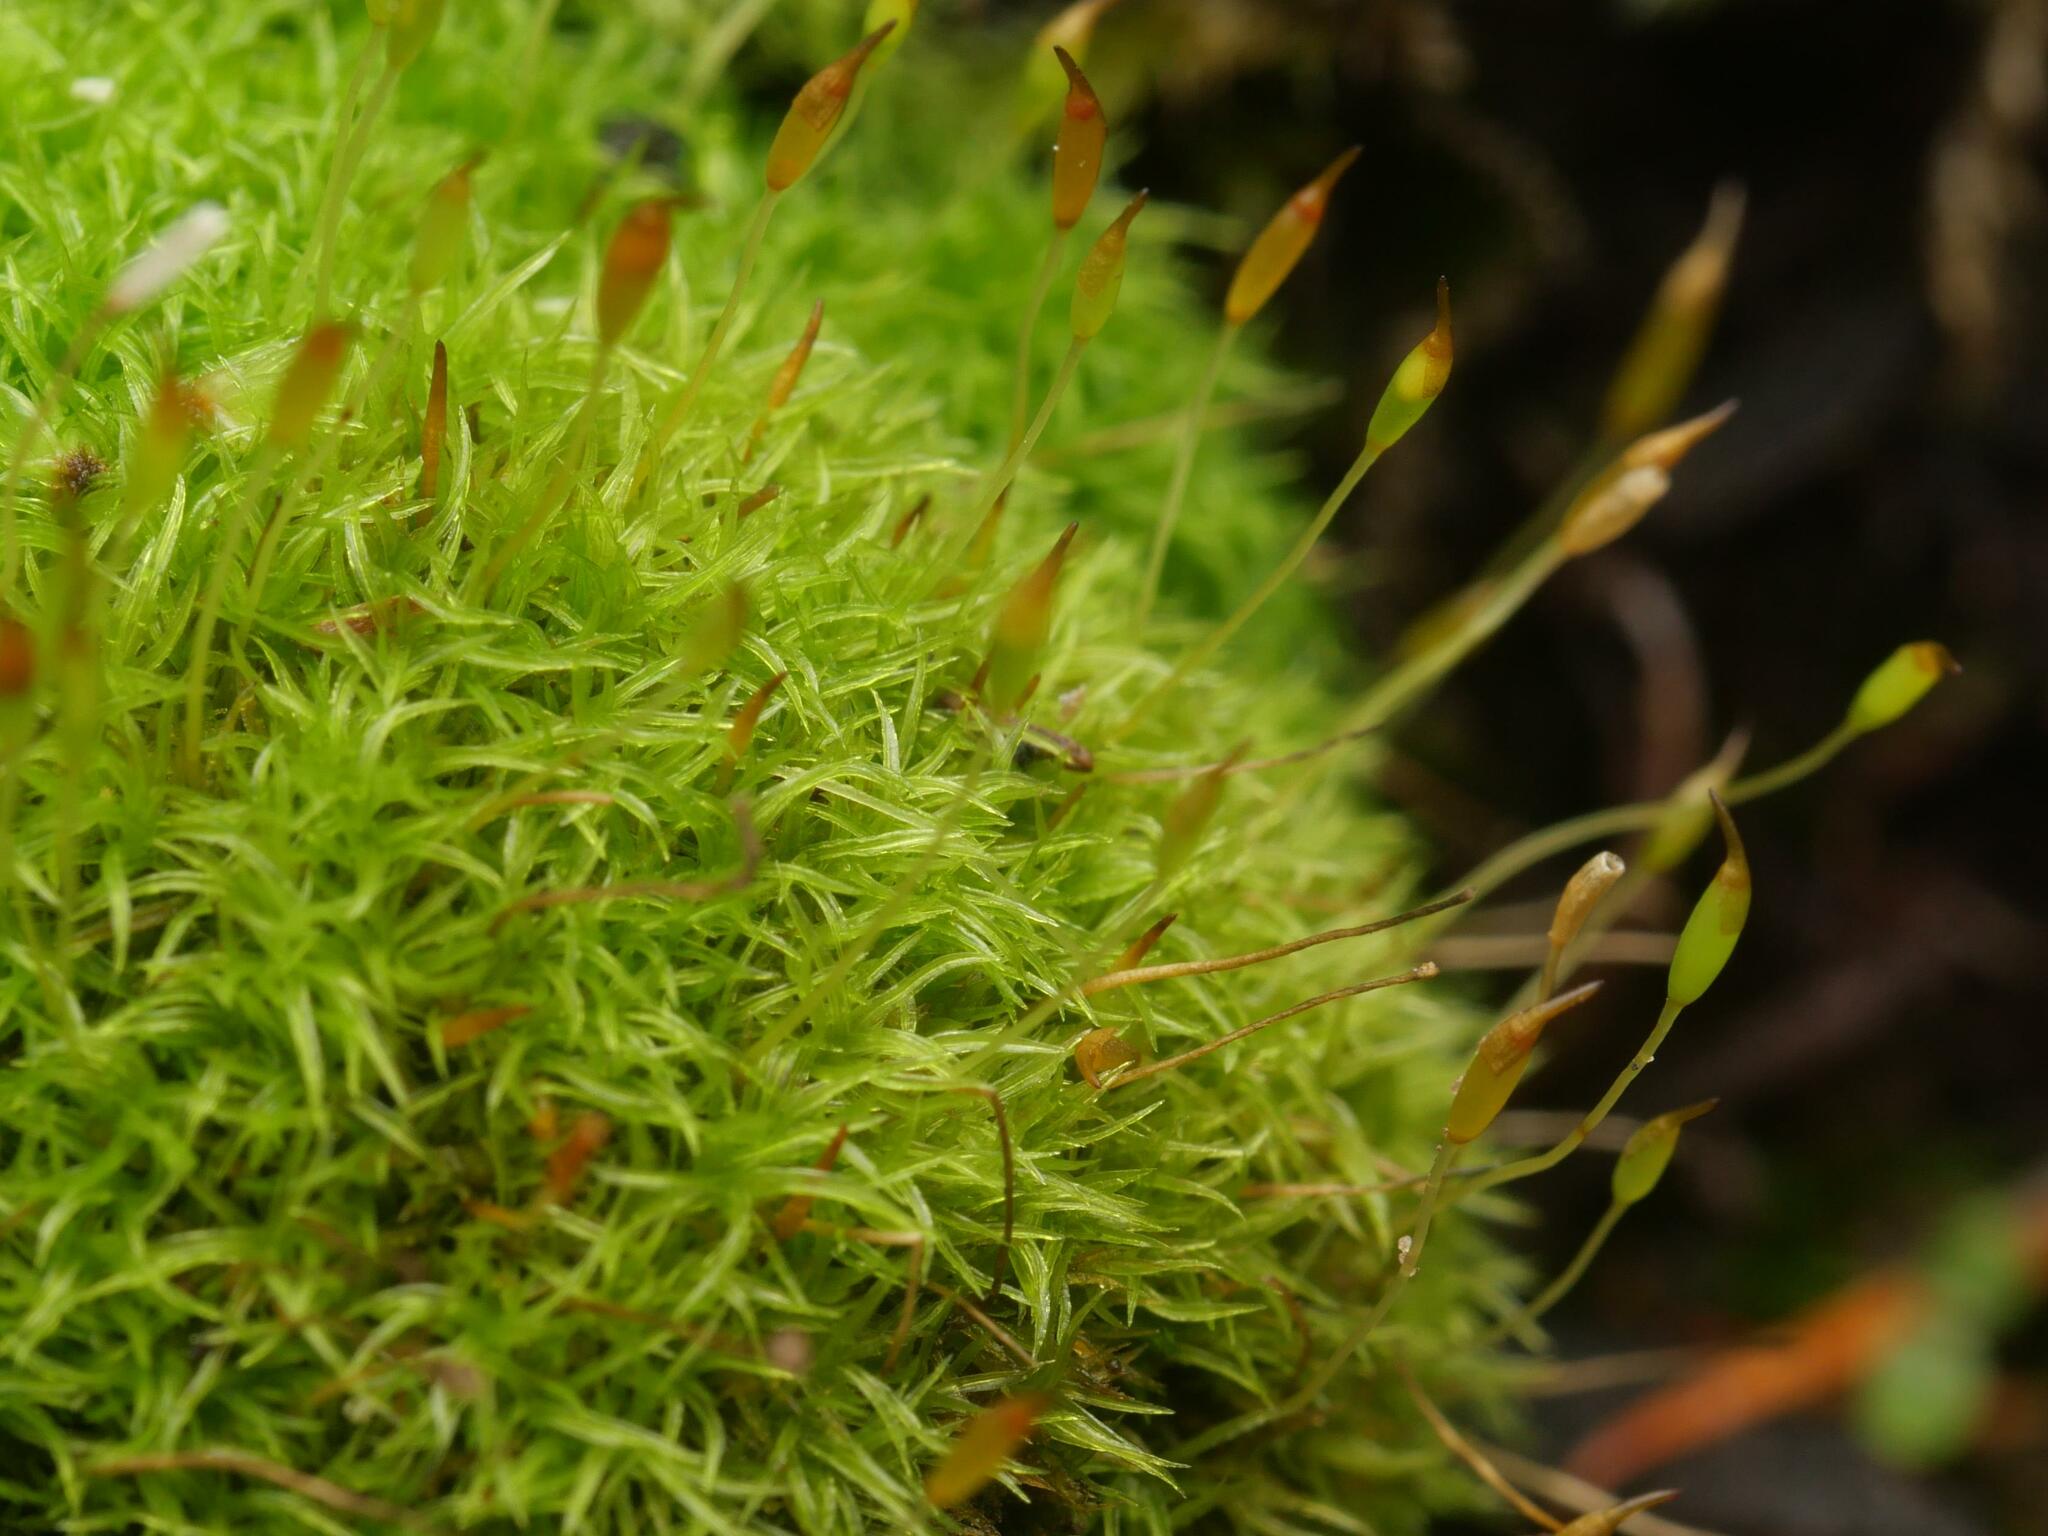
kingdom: Plantae
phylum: Bryophyta
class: Bryopsida
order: Dicranales
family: Rhabdoweisiaceae
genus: Dicranoweisia
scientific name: Dicranoweisia cirrata
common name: Common pincushion
